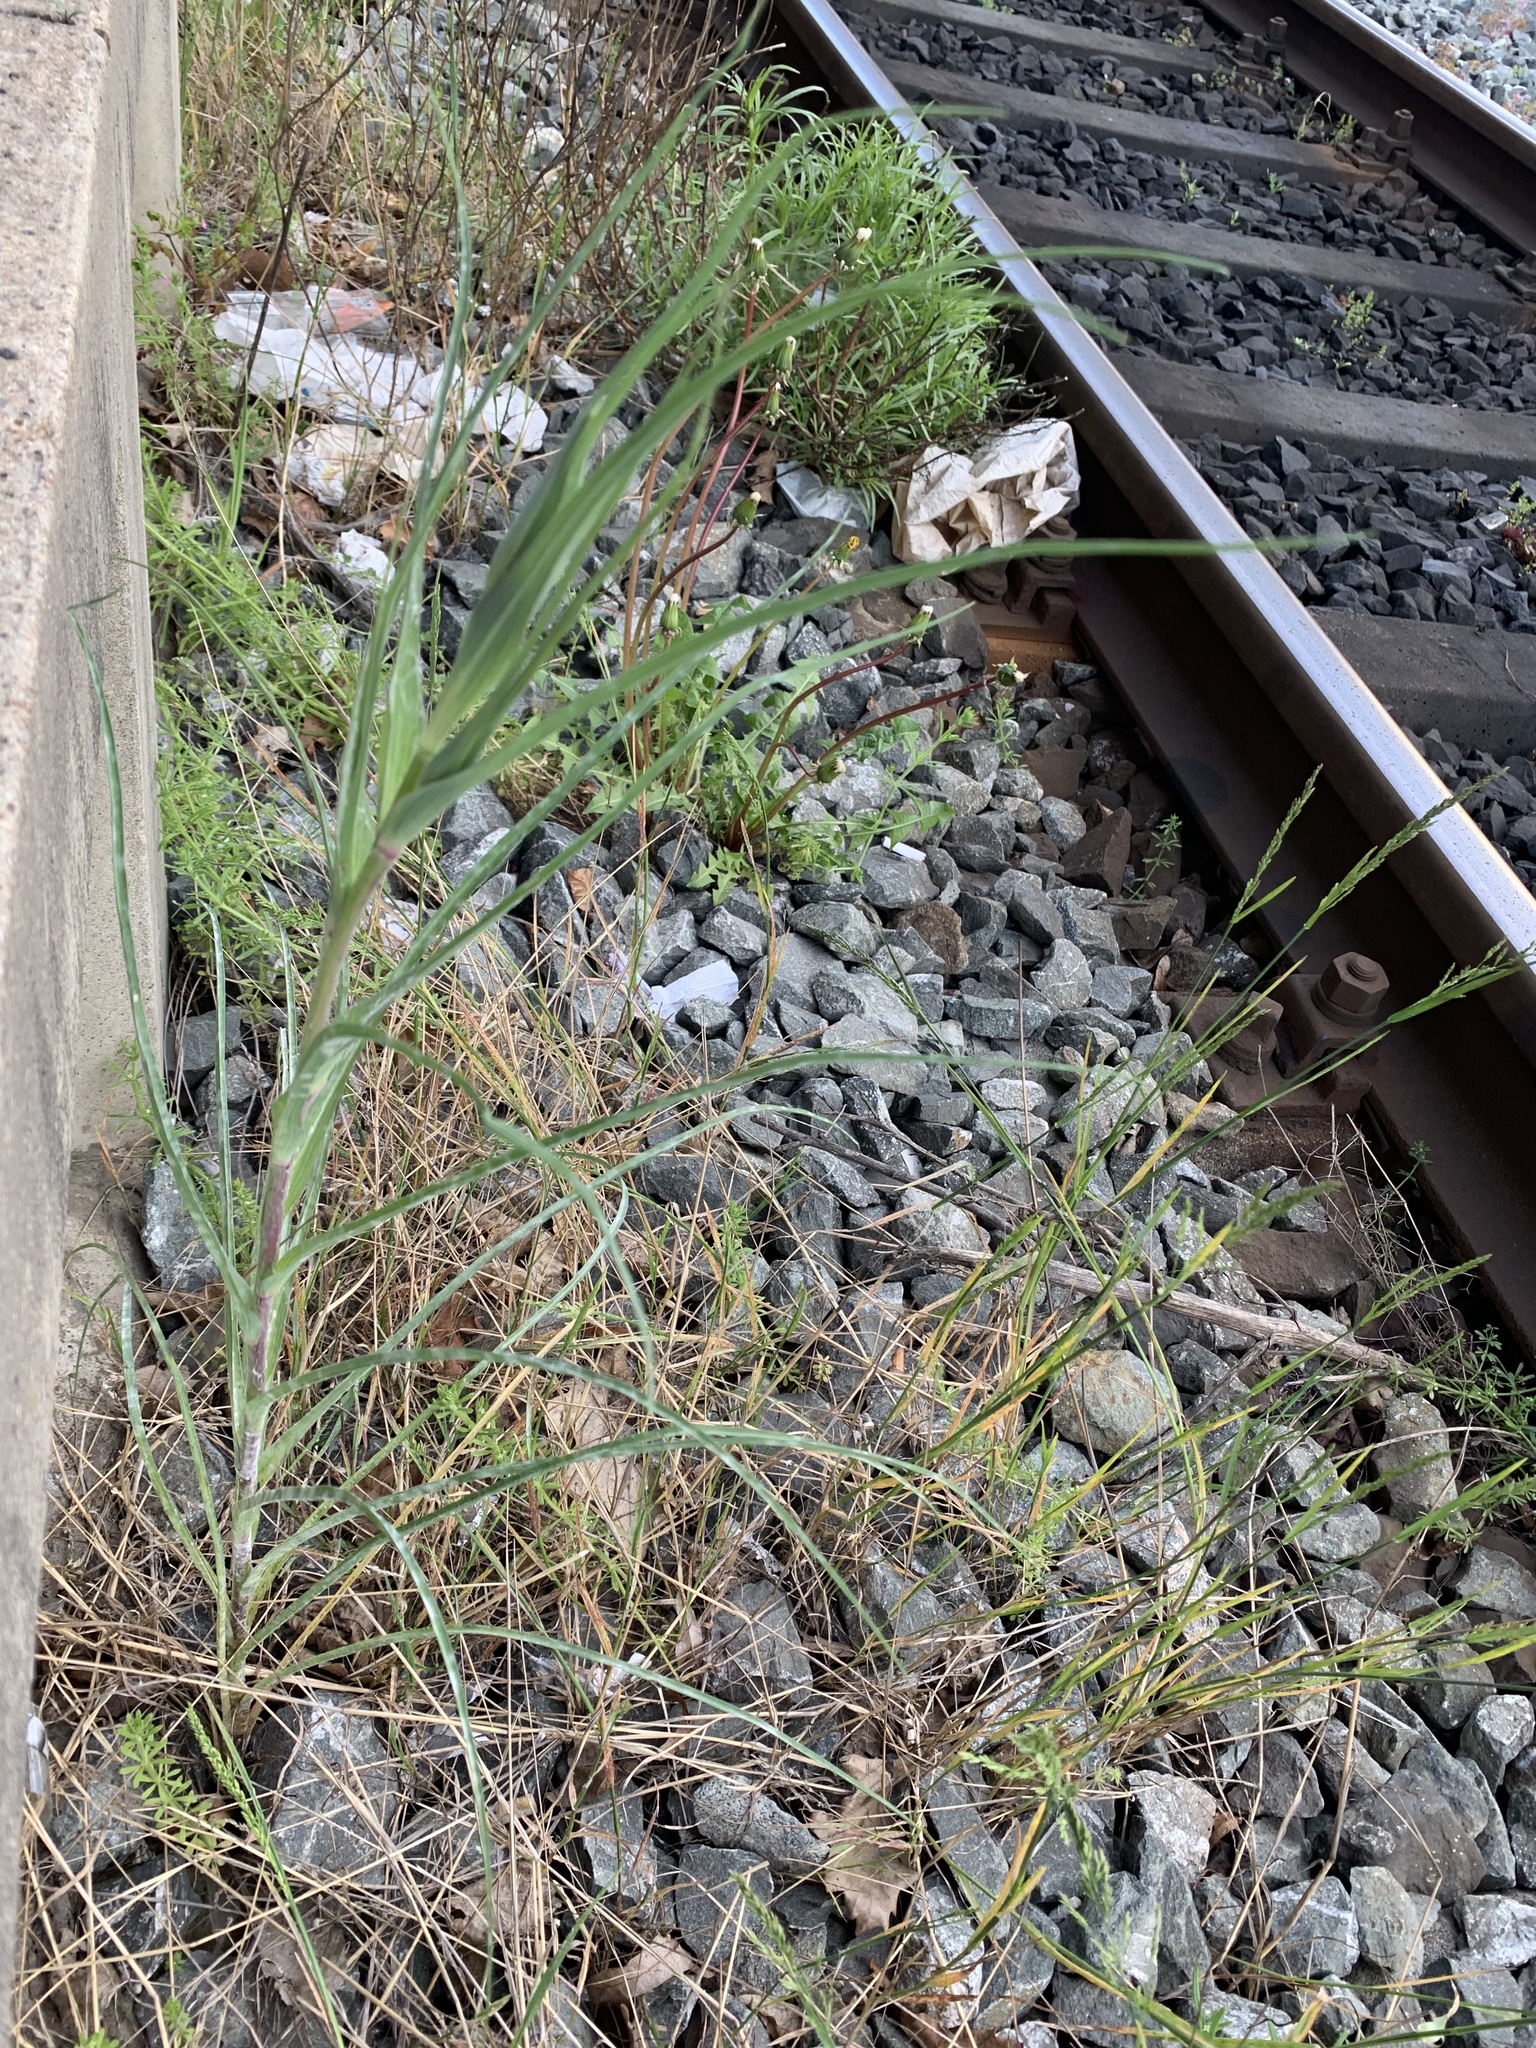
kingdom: Plantae
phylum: Tracheophyta
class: Magnoliopsida
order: Asterales
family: Asteraceae
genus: Tragopogon
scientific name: Tragopogon dubius
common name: Yellow salsify
